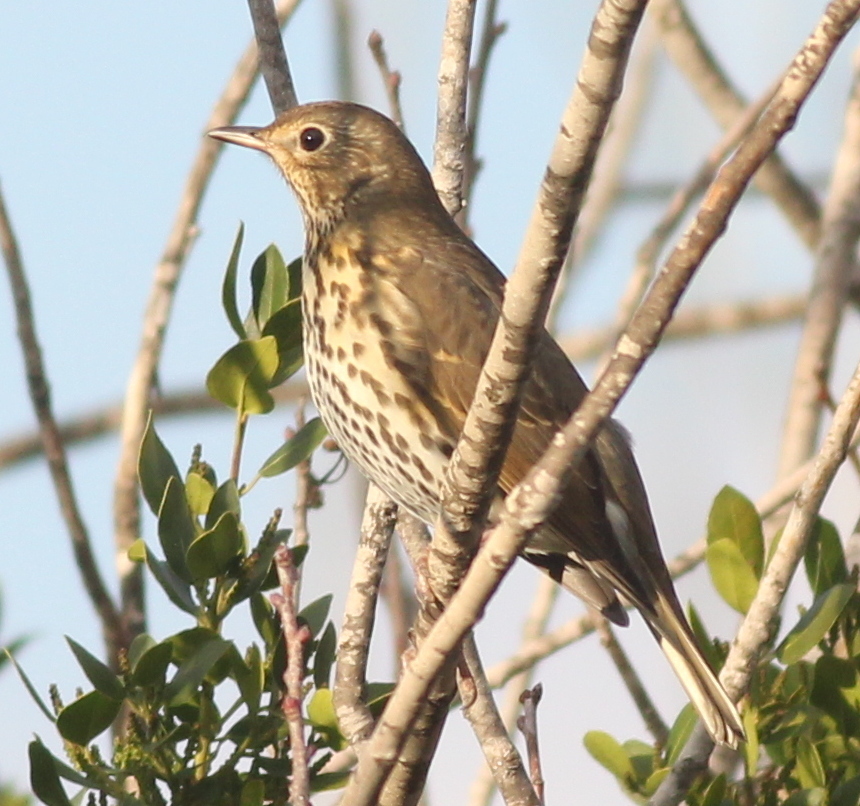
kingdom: Animalia
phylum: Chordata
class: Aves
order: Passeriformes
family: Turdidae
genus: Turdus
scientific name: Turdus philomelos
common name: Song thrush
